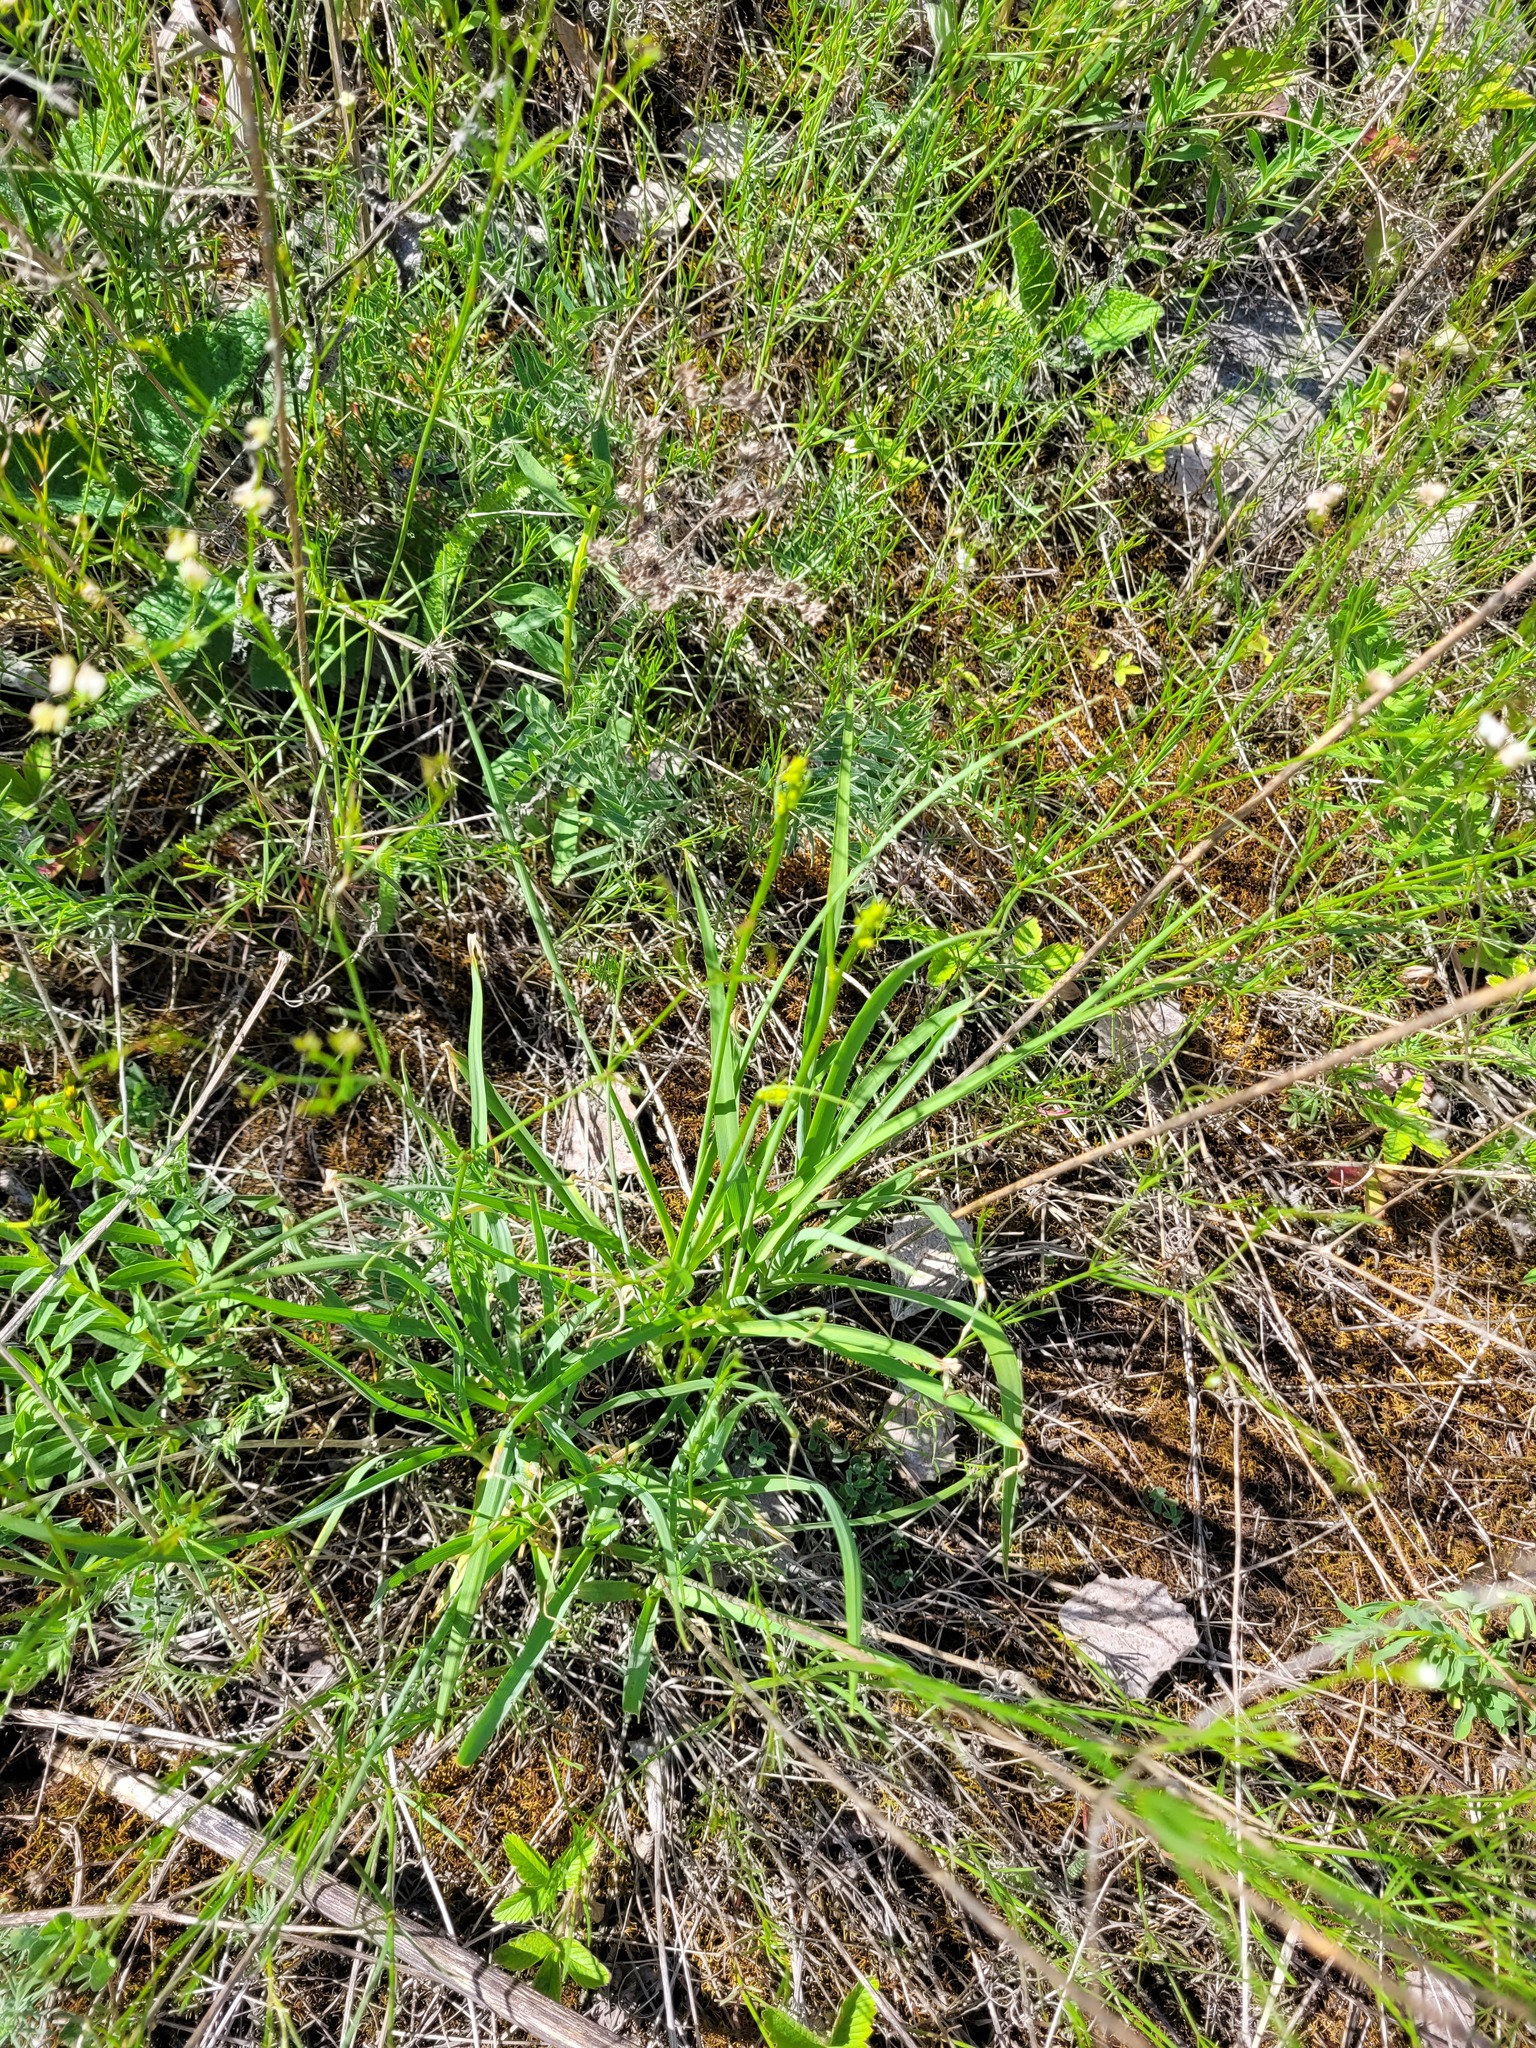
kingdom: Plantae
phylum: Tracheophyta
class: Liliopsida
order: Asparagales
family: Asparagaceae
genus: Anthericum
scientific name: Anthericum ramosum
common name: Branched st. bernard's-lily
